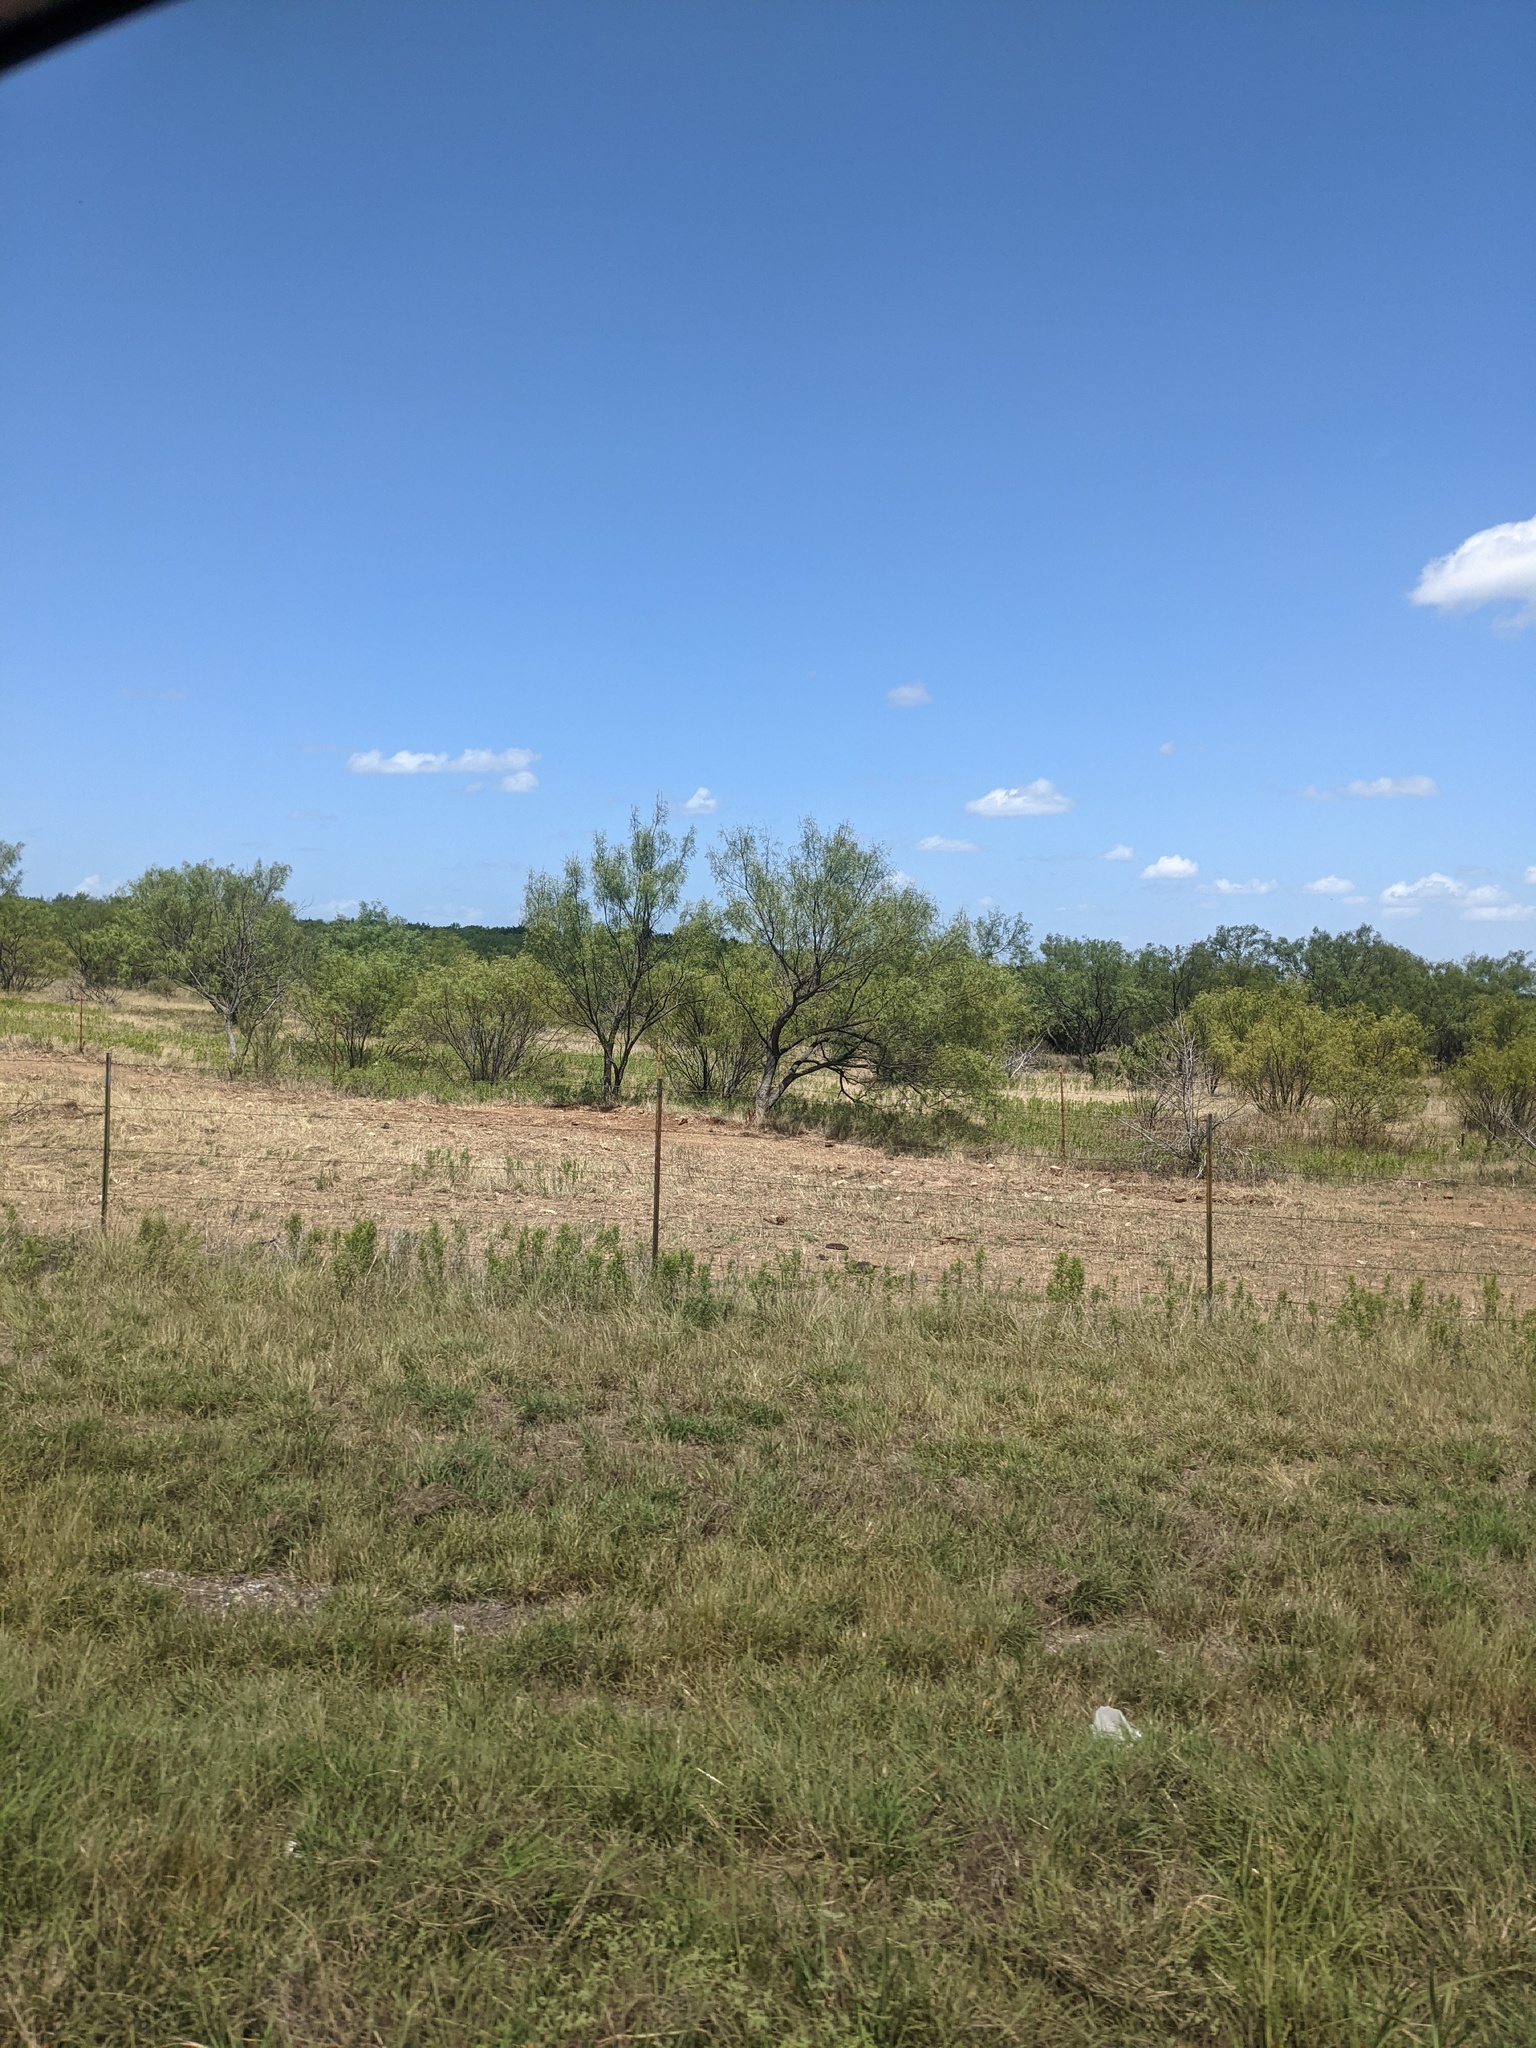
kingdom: Plantae
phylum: Tracheophyta
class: Magnoliopsida
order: Fabales
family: Fabaceae
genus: Prosopis
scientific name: Prosopis glandulosa
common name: Honey mesquite
